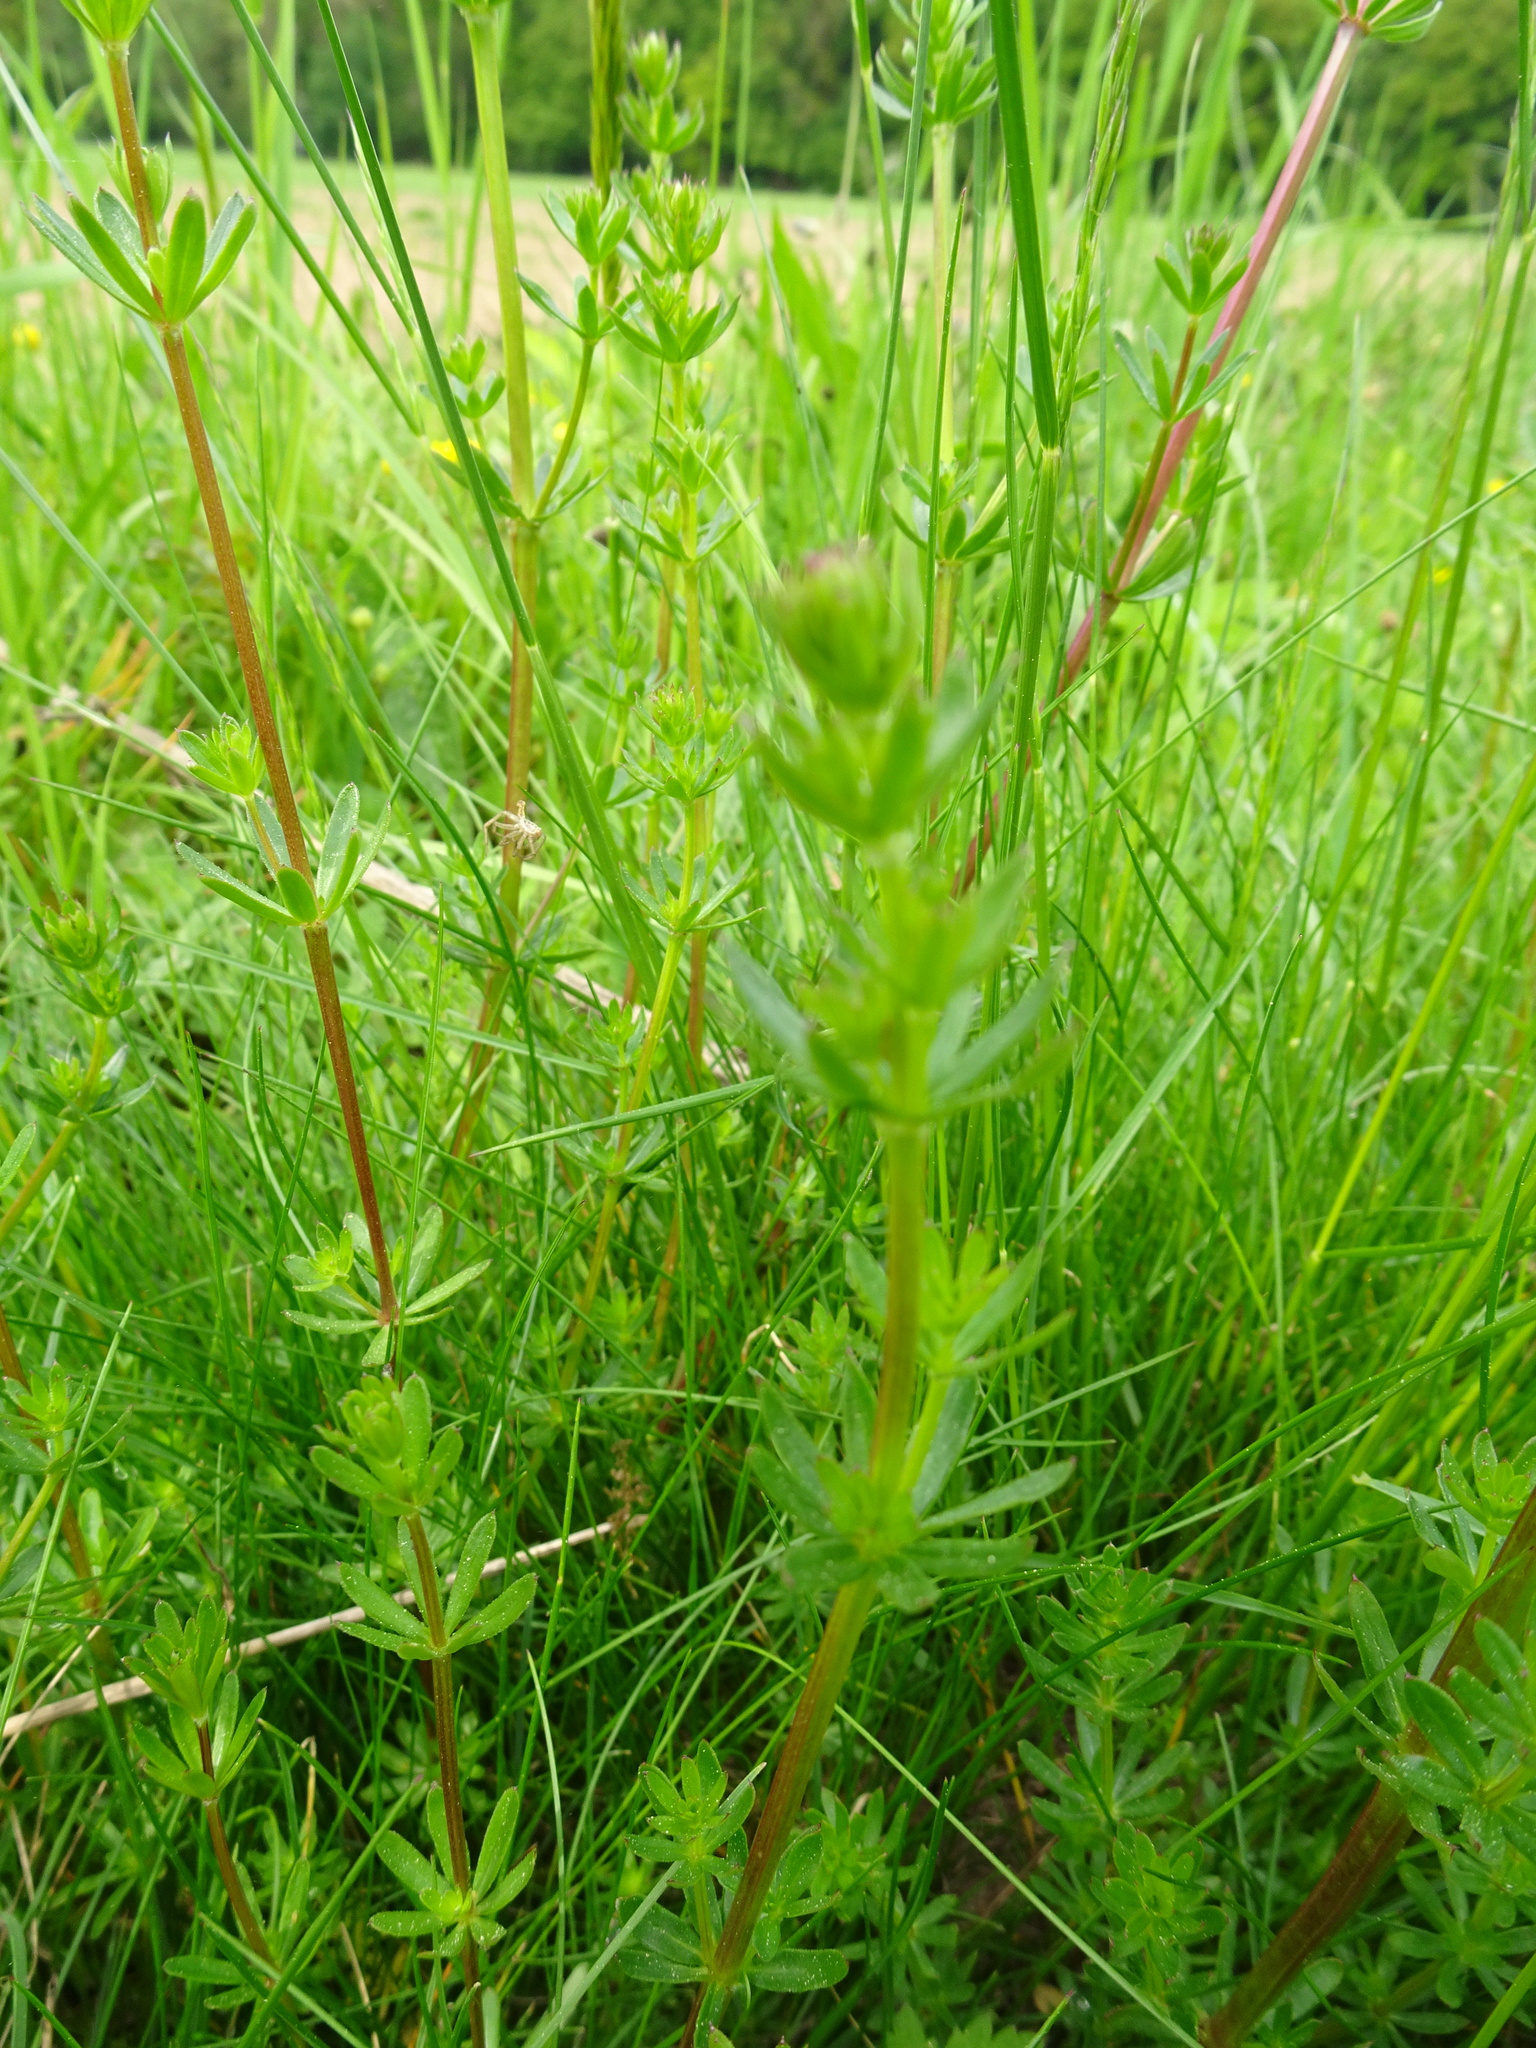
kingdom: Plantae
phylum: Tracheophyta
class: Magnoliopsida
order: Gentianales
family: Rubiaceae
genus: Galium
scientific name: Galium mollugo
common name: Hedge bedstraw
